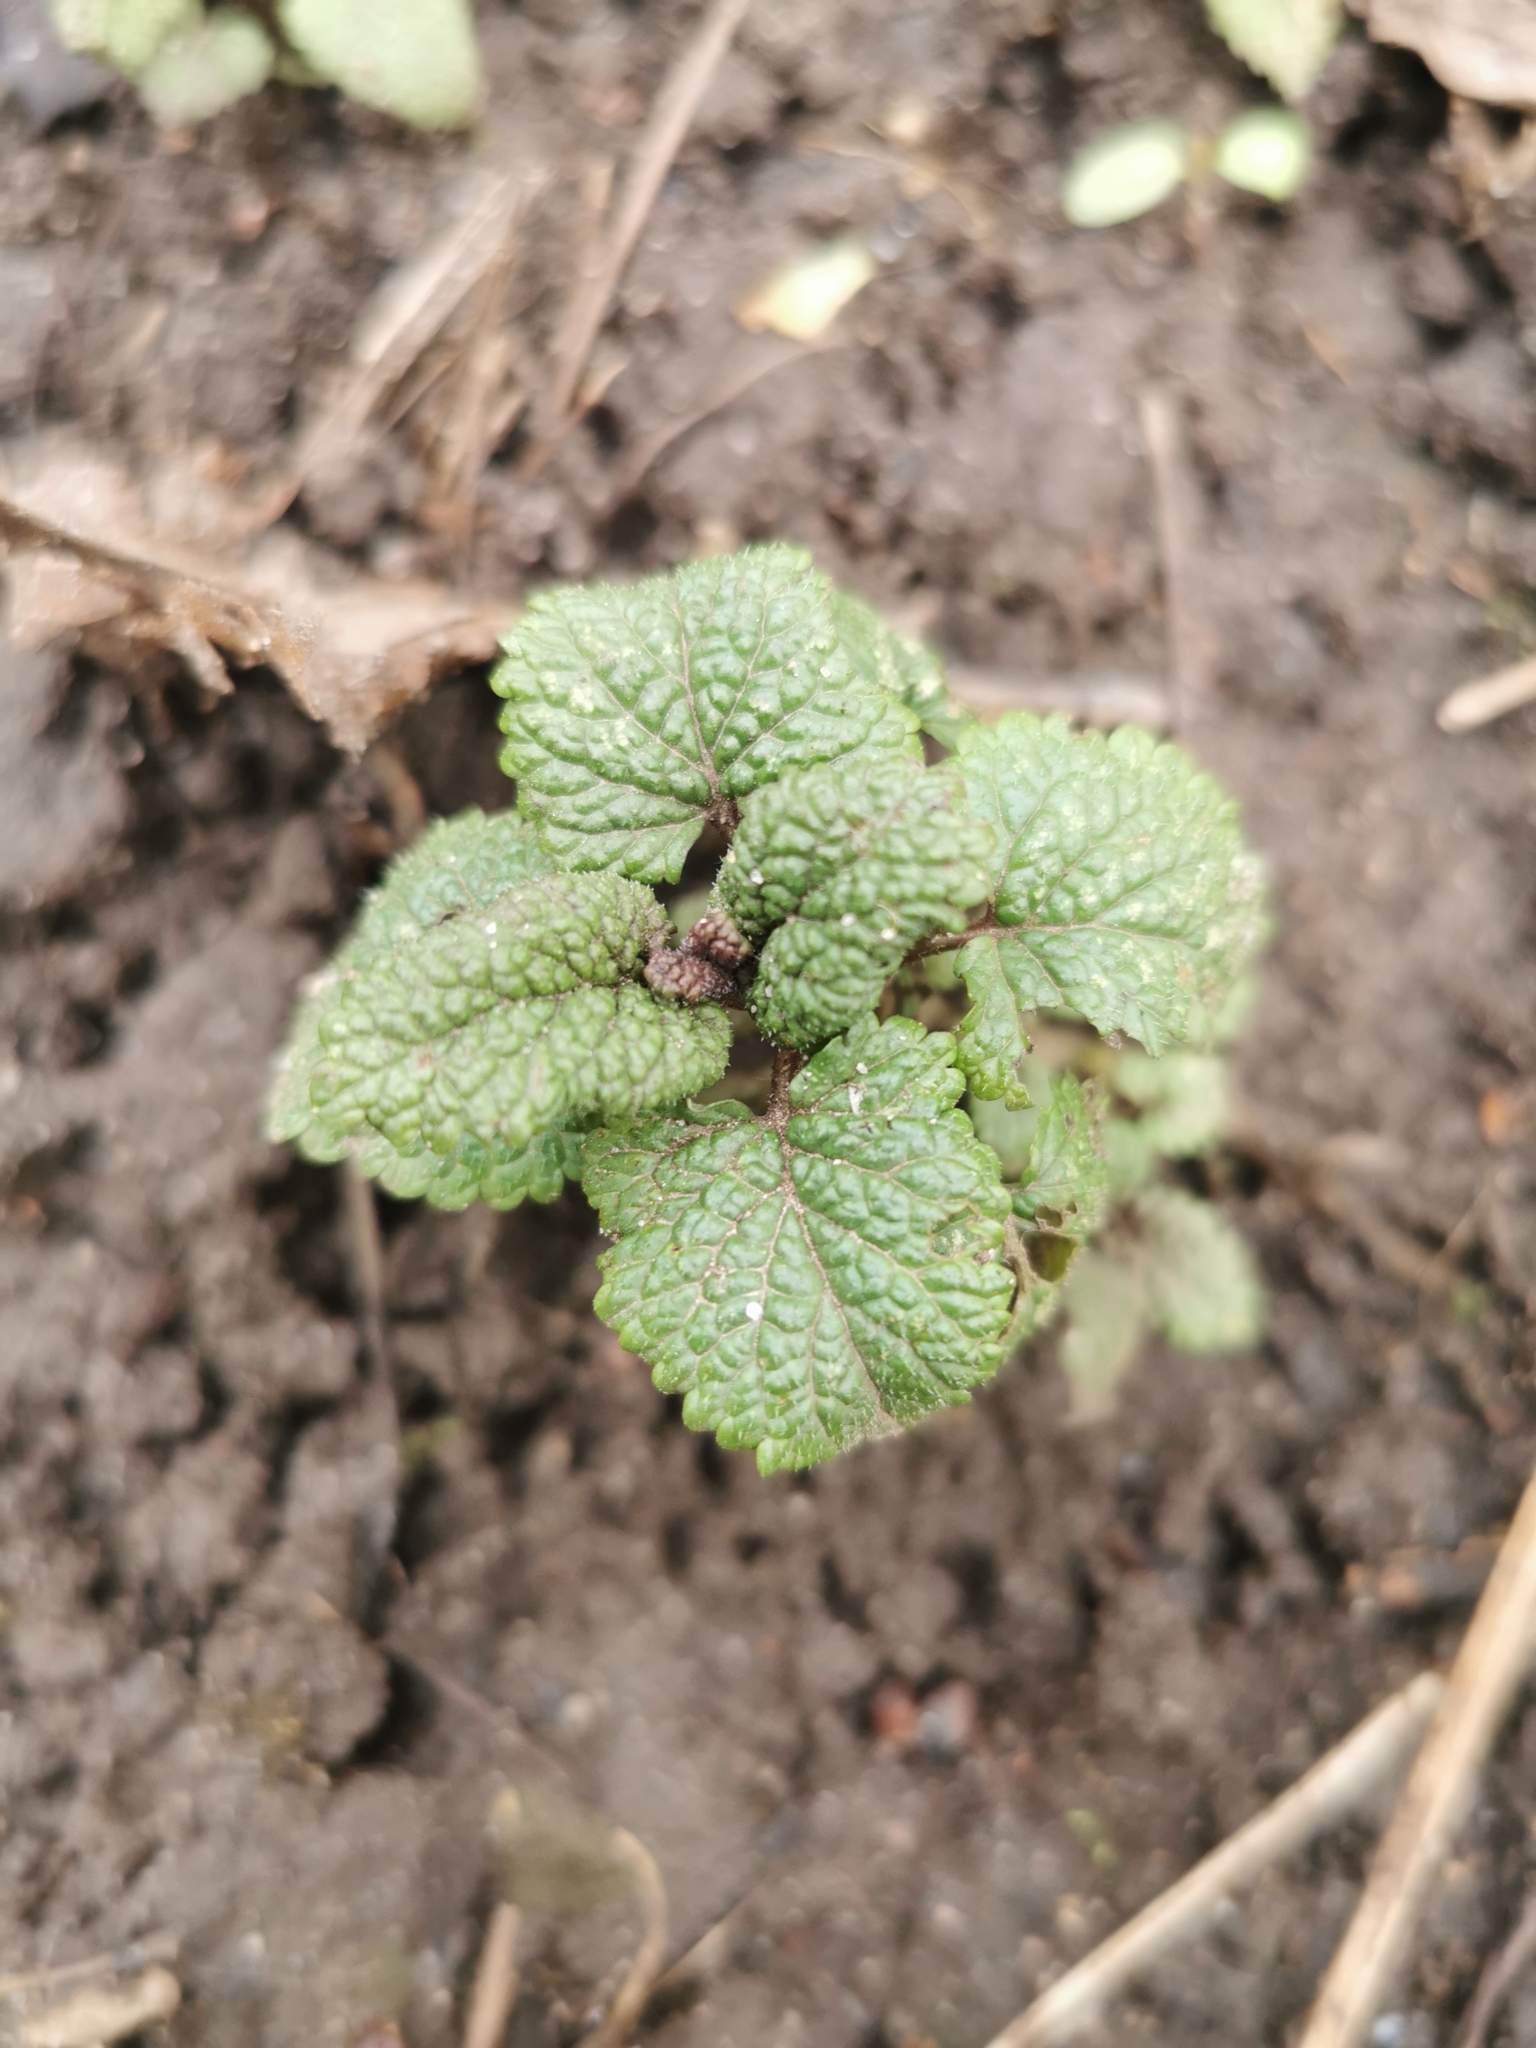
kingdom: Plantae
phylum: Tracheophyta
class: Magnoliopsida
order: Lamiales
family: Lamiaceae
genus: Lamium
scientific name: Lamium purpureum
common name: Red dead-nettle
